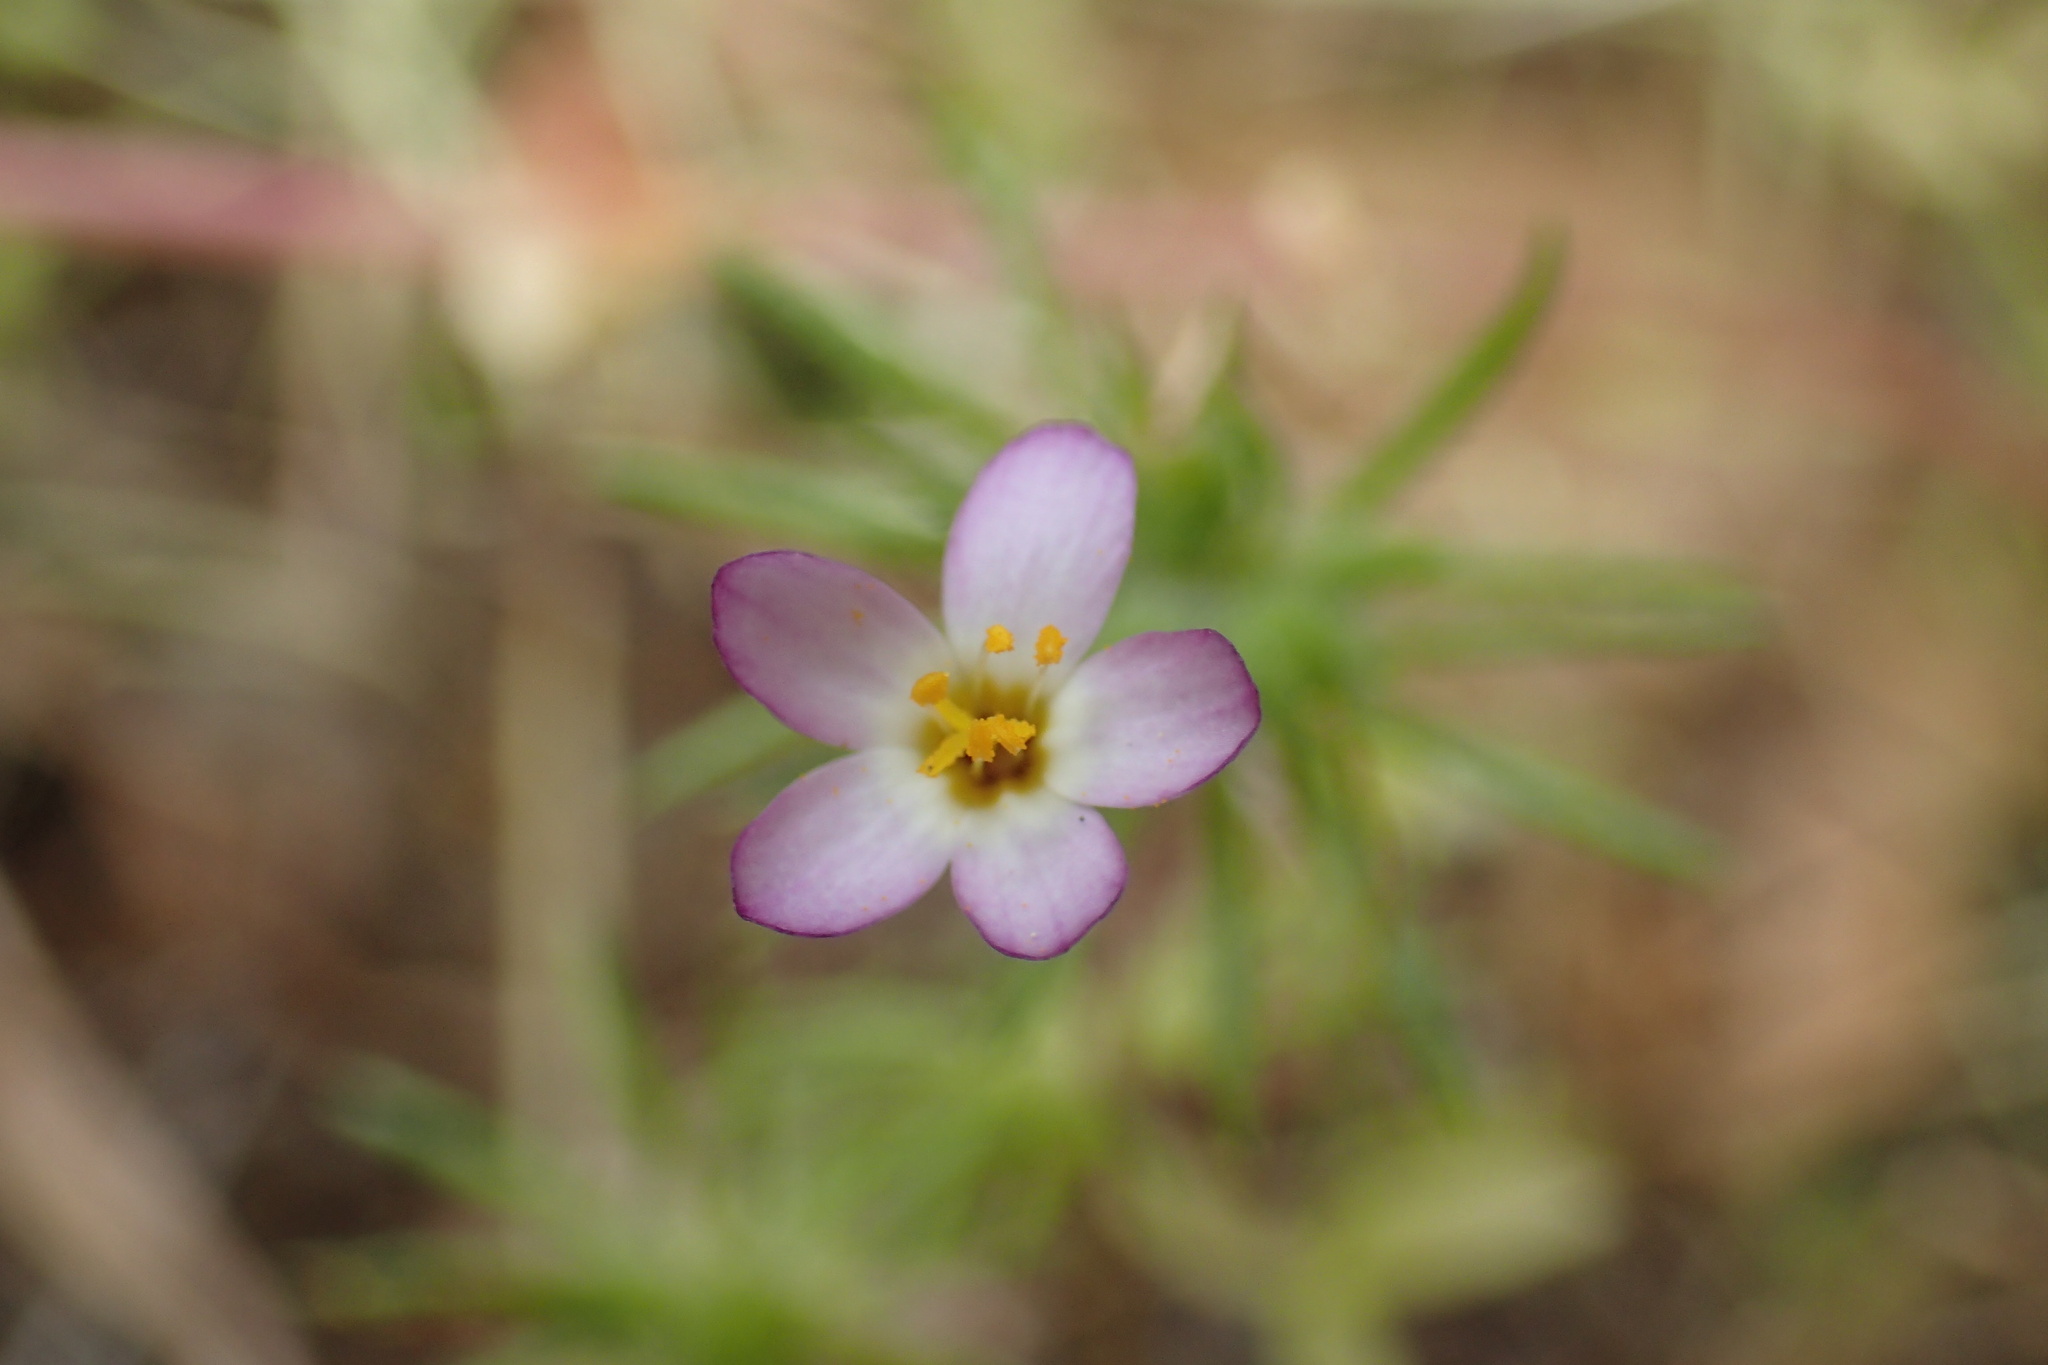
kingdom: Plantae
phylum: Tracheophyta
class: Magnoliopsida
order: Ericales
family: Polemoniaceae
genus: Leptosiphon
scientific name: Leptosiphon bicolor
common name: True babystars
